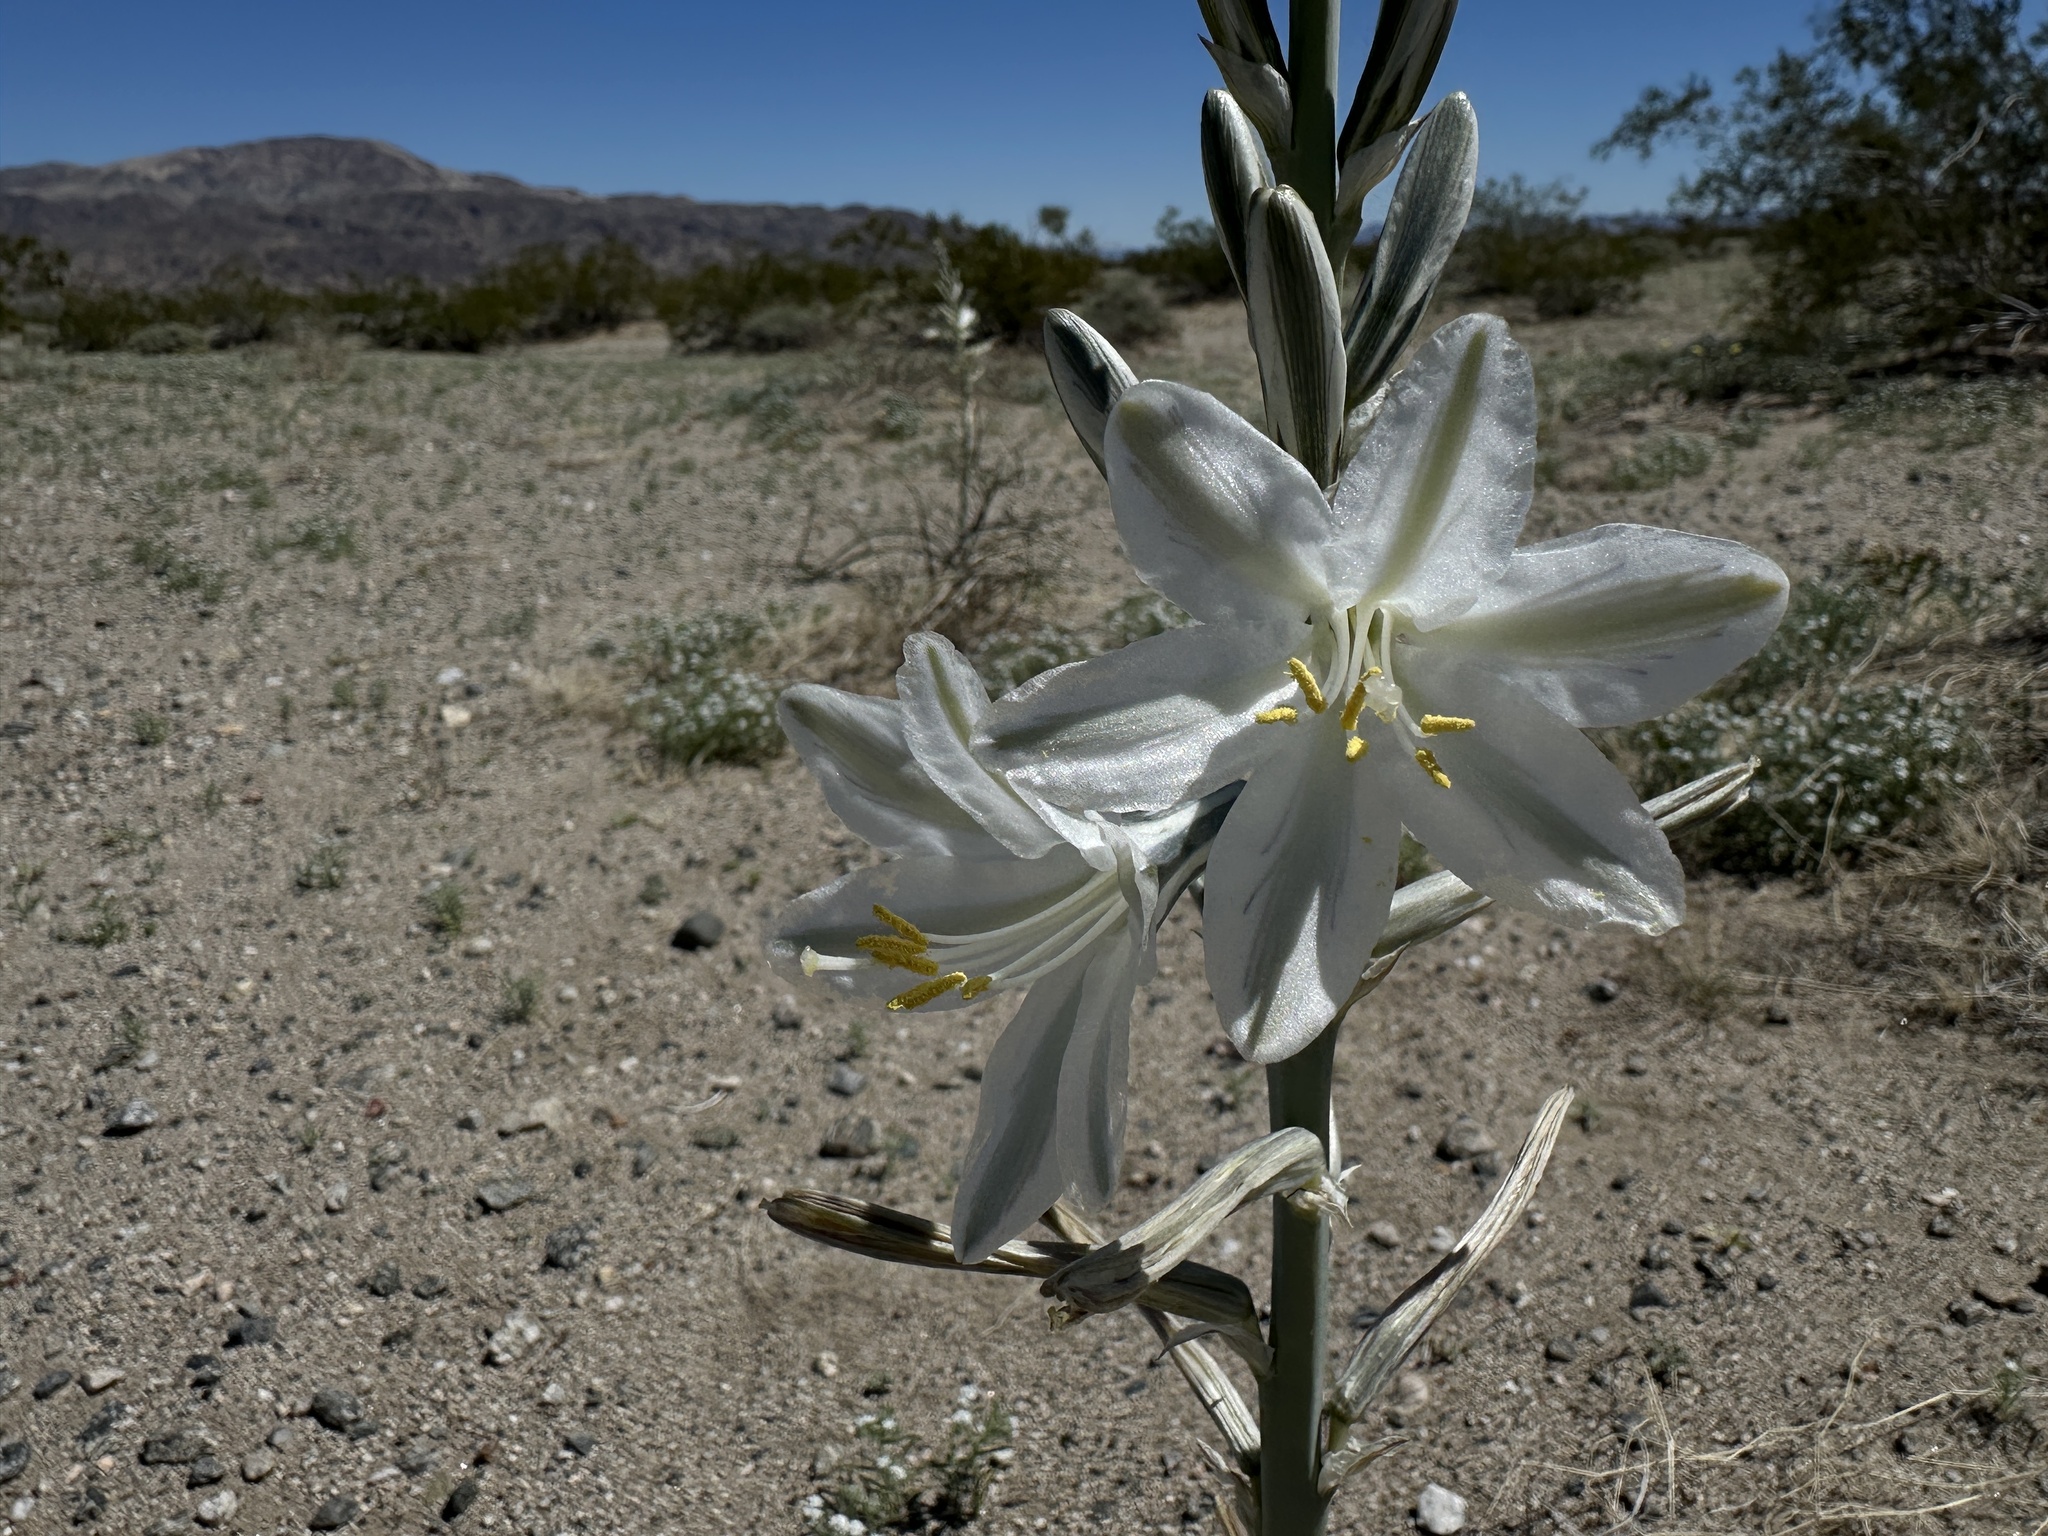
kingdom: Plantae
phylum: Tracheophyta
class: Liliopsida
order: Asparagales
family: Asparagaceae
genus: Hesperocallis
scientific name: Hesperocallis undulata
